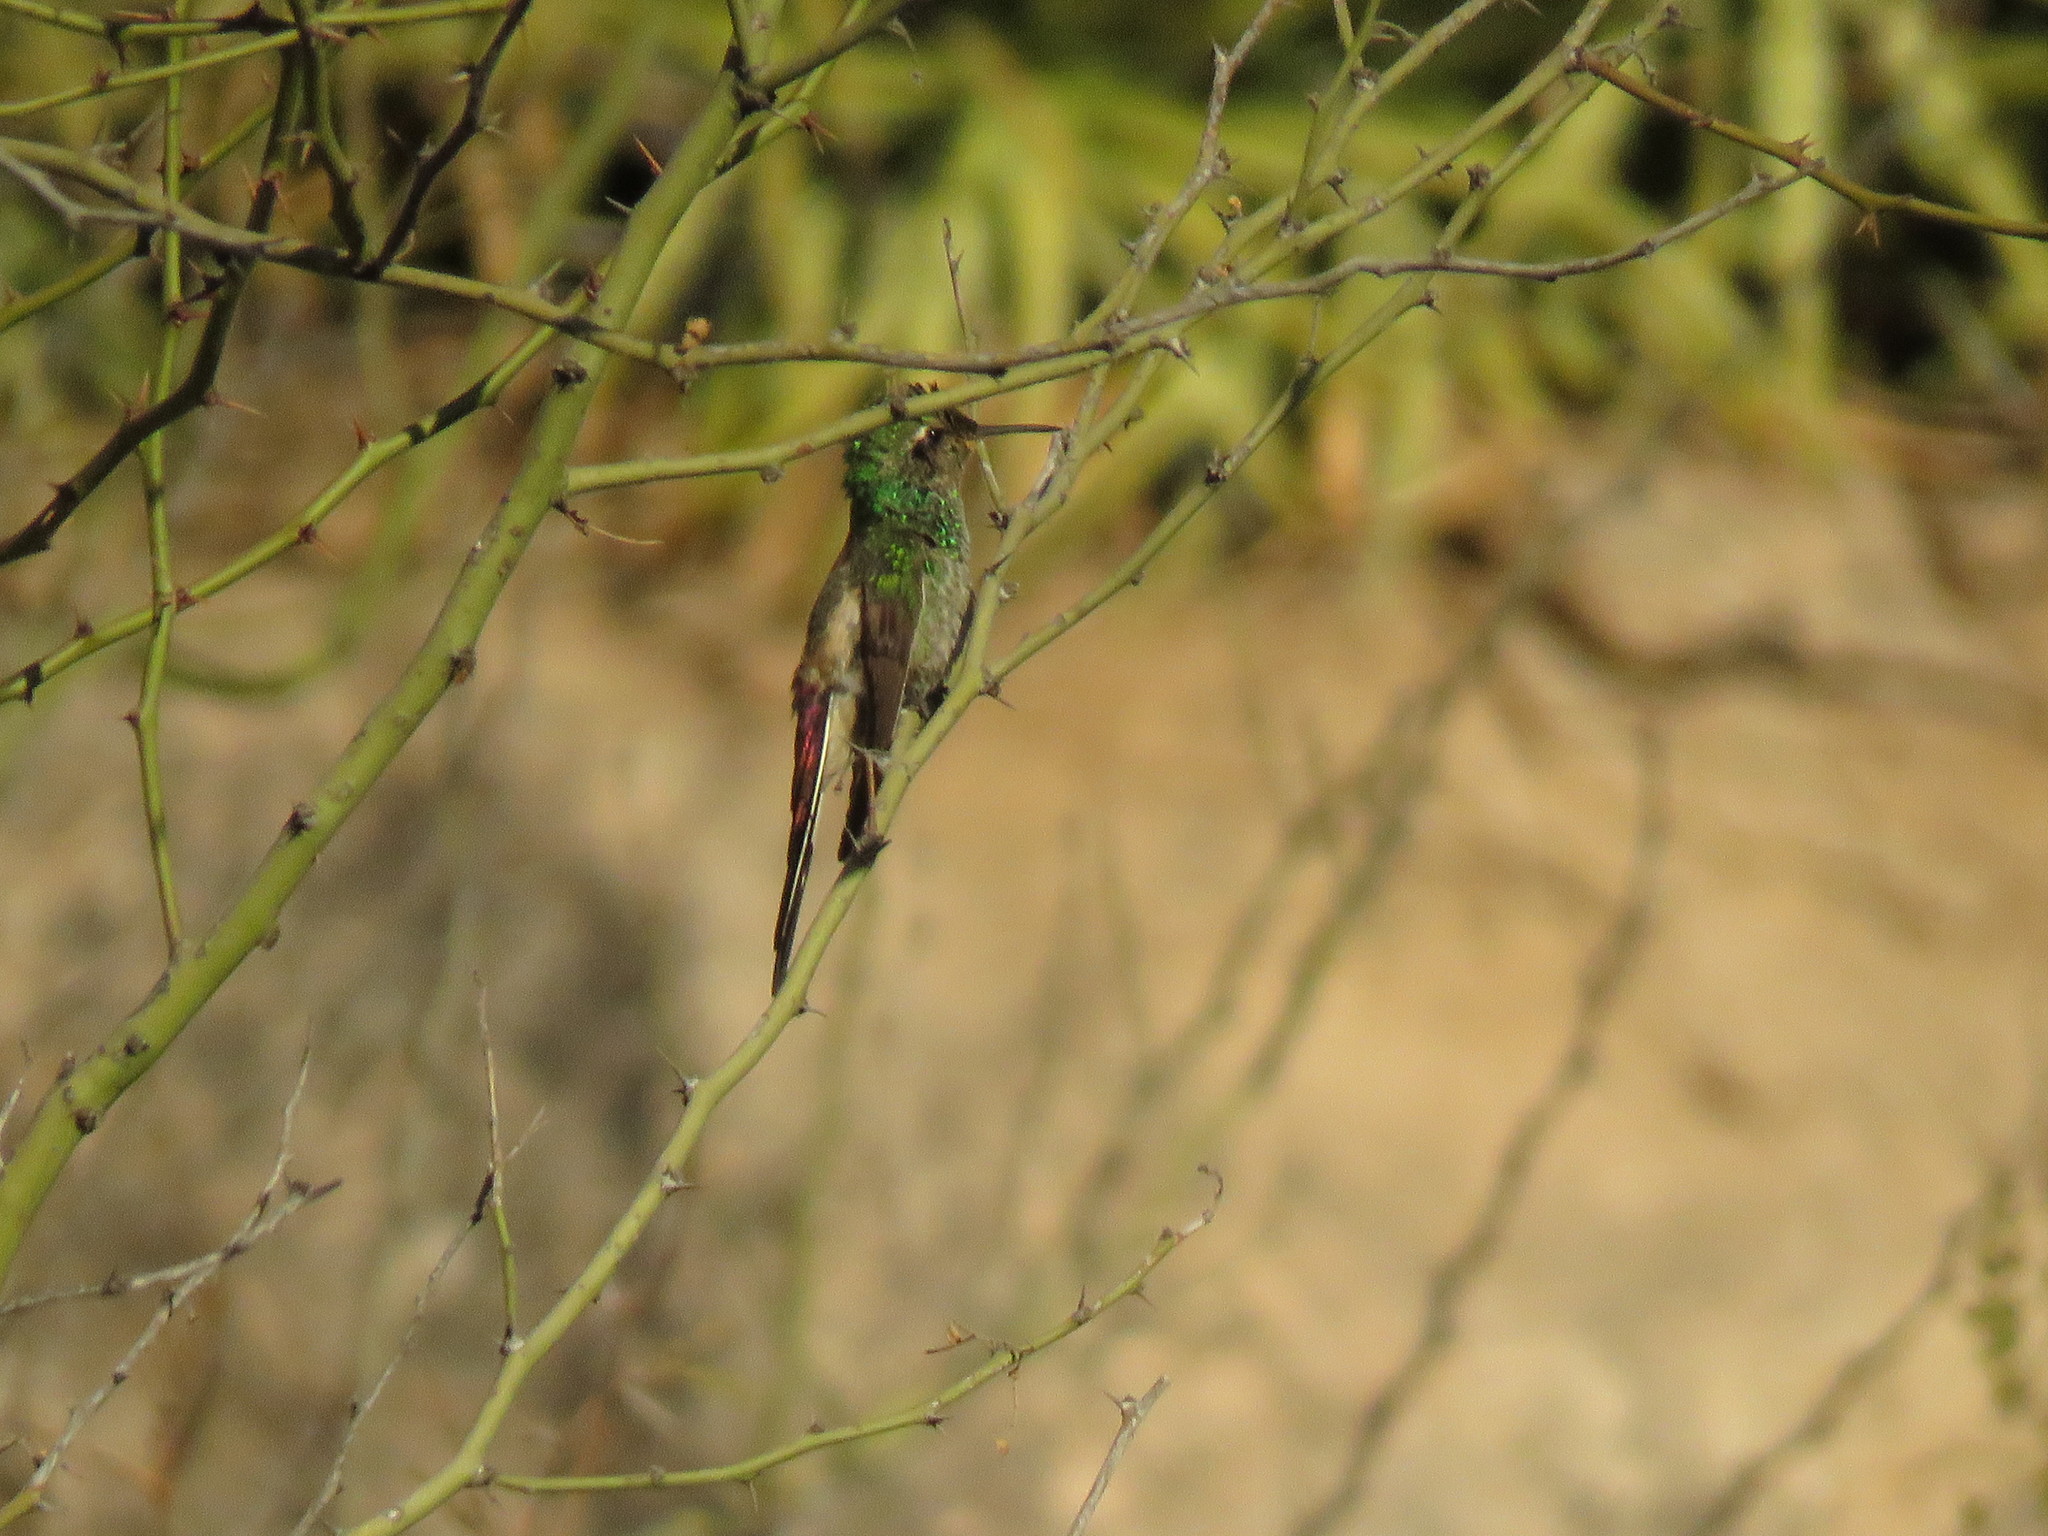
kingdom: Animalia
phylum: Chordata
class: Aves
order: Apodiformes
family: Trochilidae
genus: Sappho
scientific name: Sappho sparganurus
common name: Red-tailed comet
